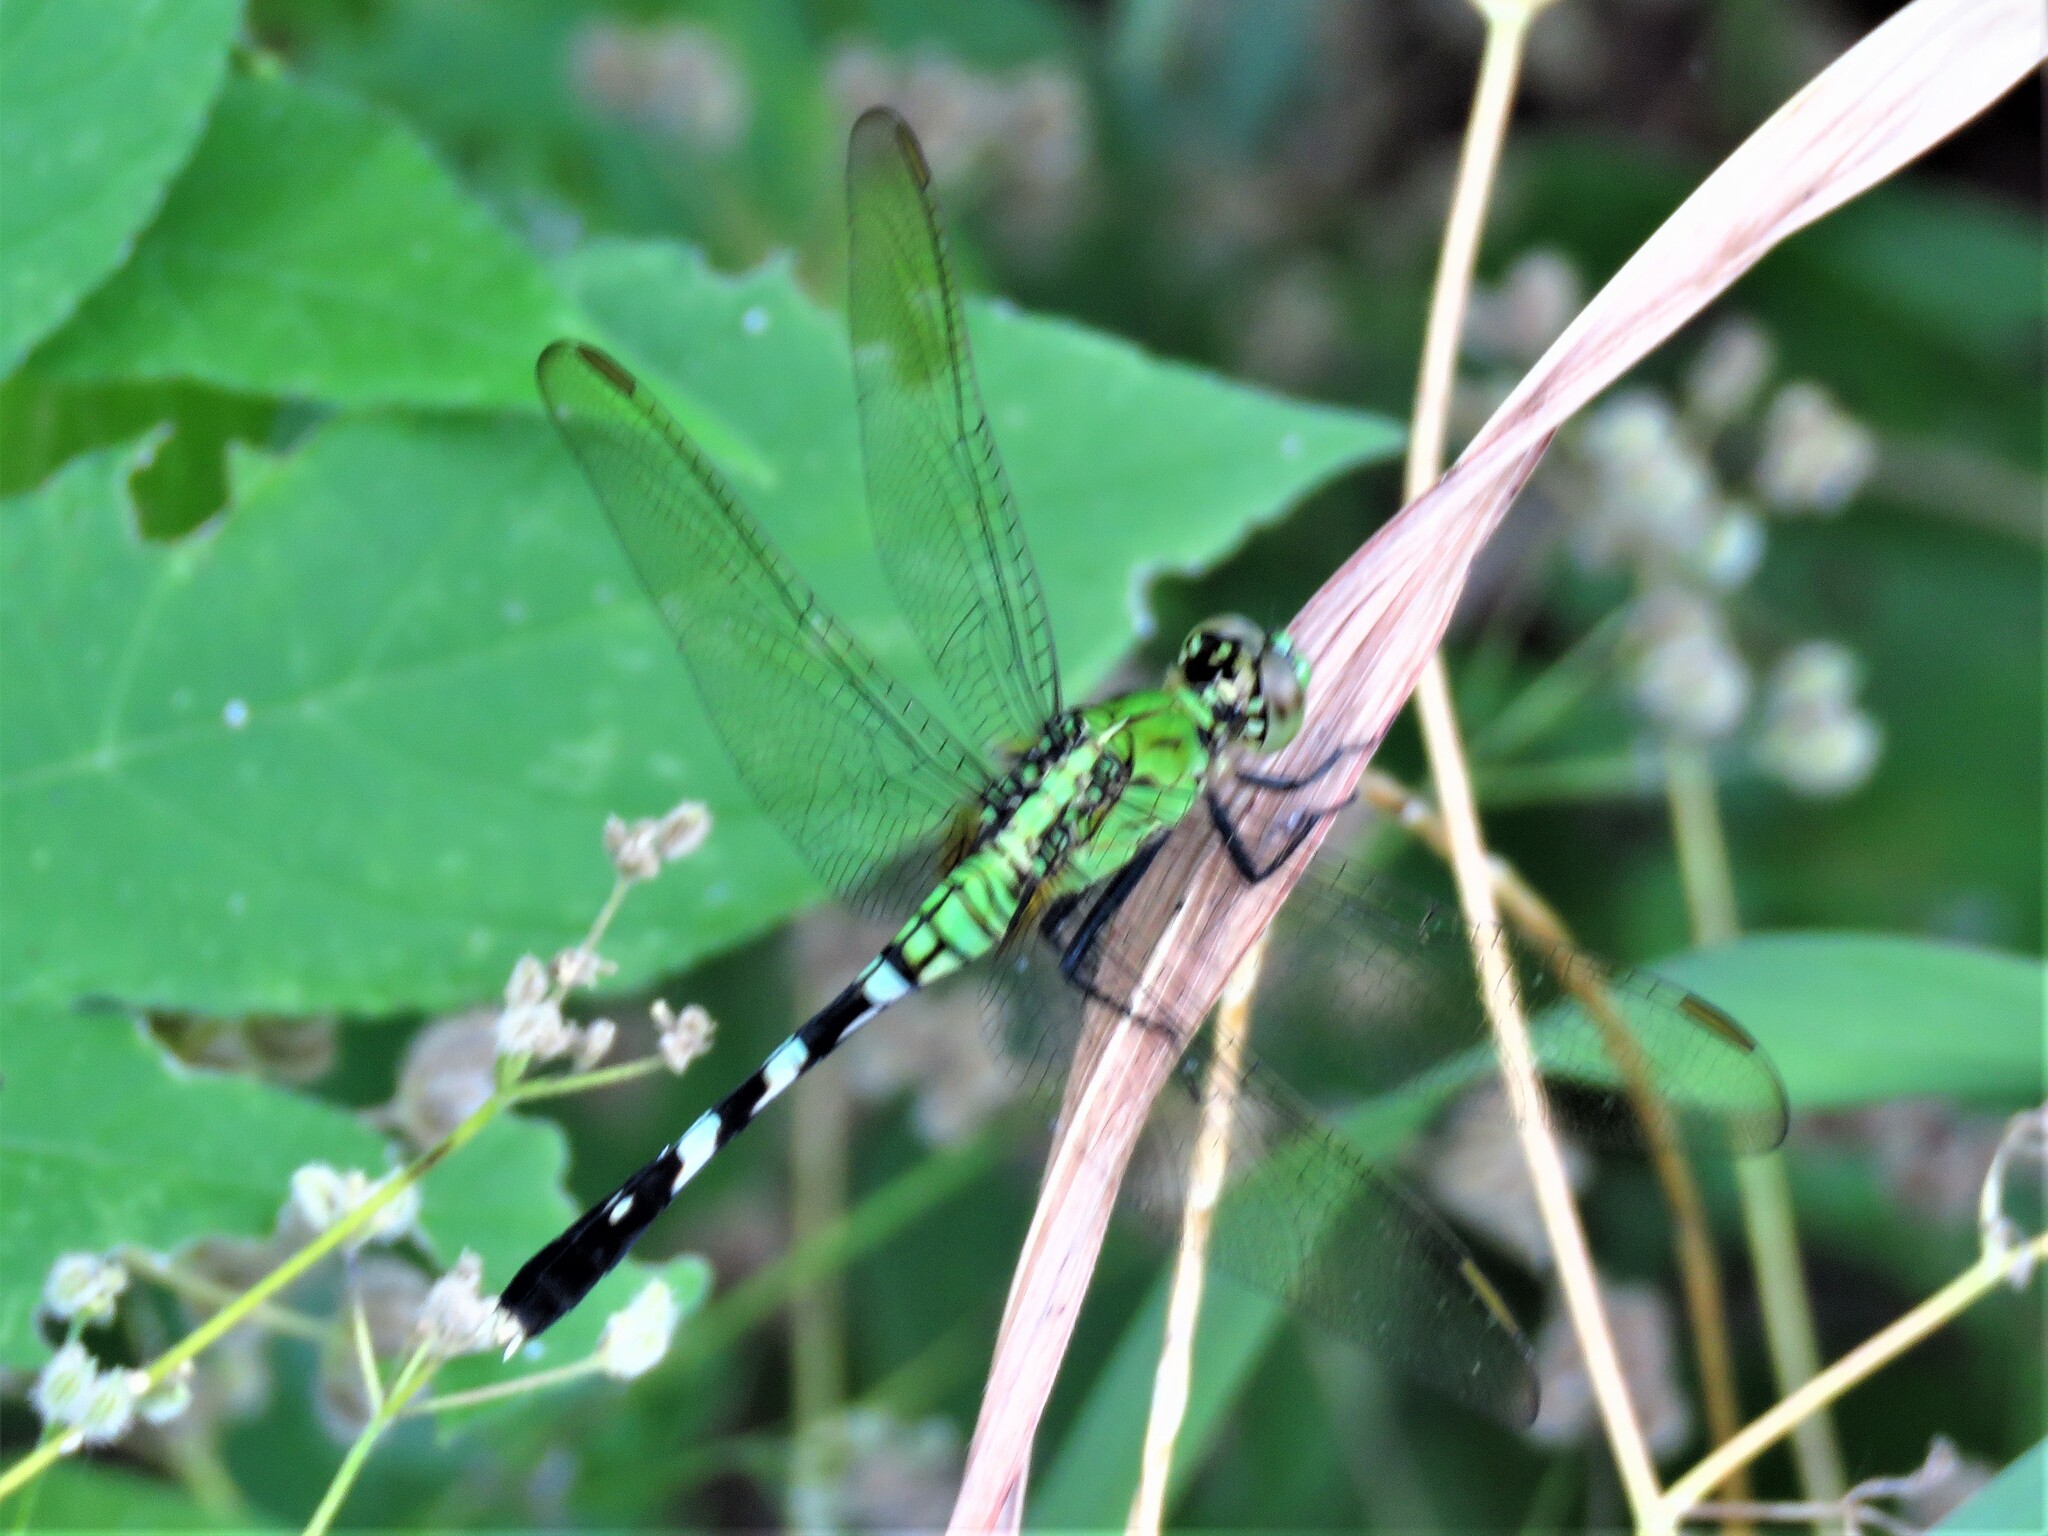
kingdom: Animalia
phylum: Arthropoda
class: Insecta
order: Odonata
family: Libellulidae
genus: Erythemis
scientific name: Erythemis simplicicollis
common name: Eastern pondhawk
